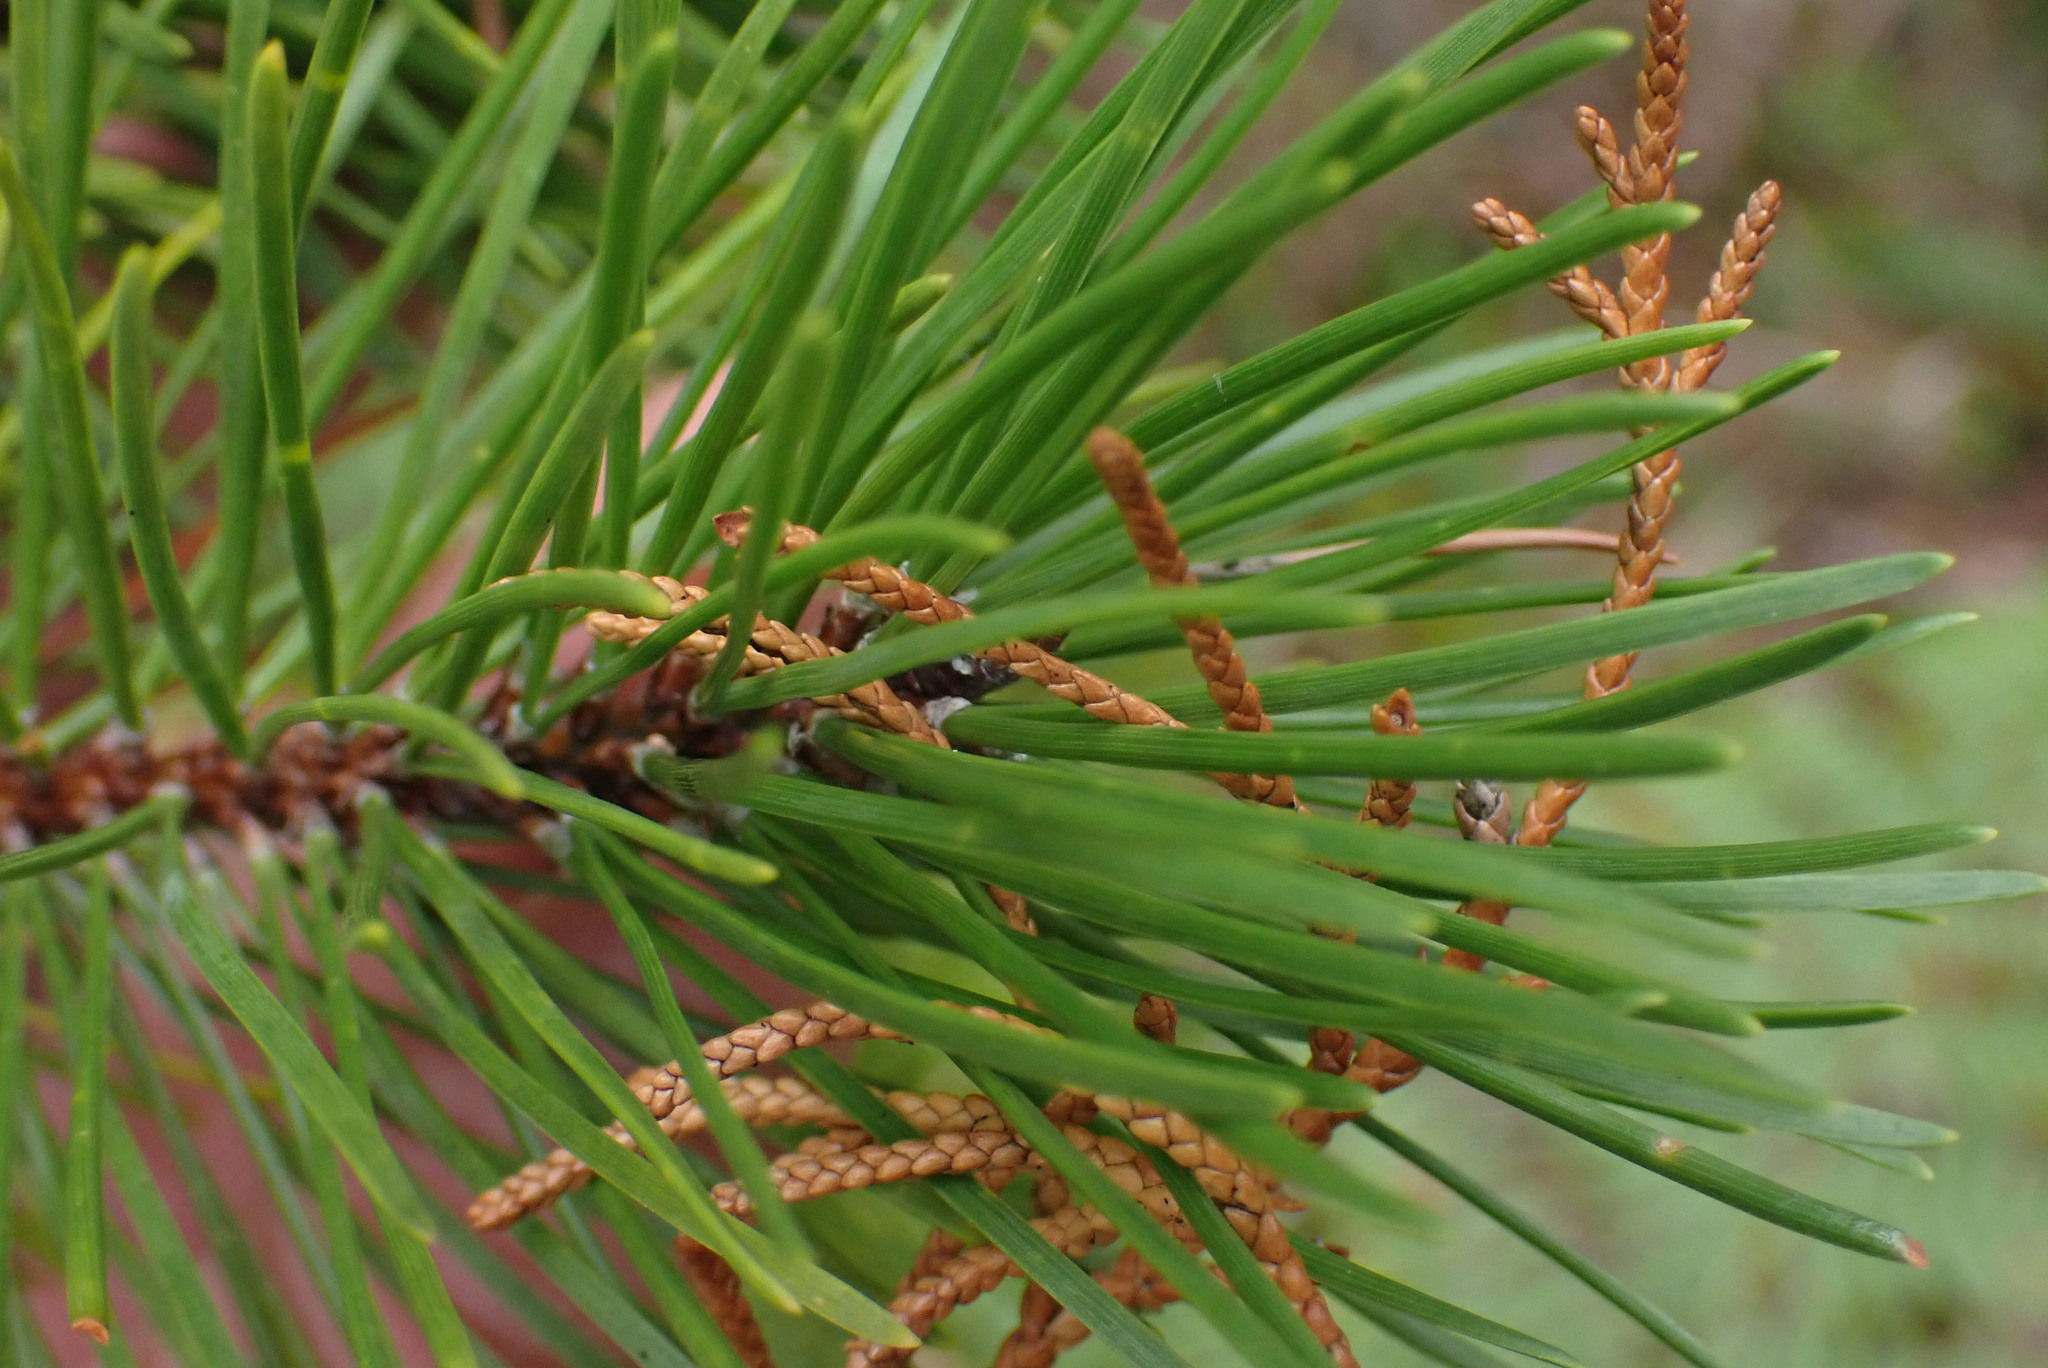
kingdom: Plantae
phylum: Tracheophyta
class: Pinopsida
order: Pinales
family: Pinaceae
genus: Pinus
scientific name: Pinus contorta
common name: Lodgepole pine
